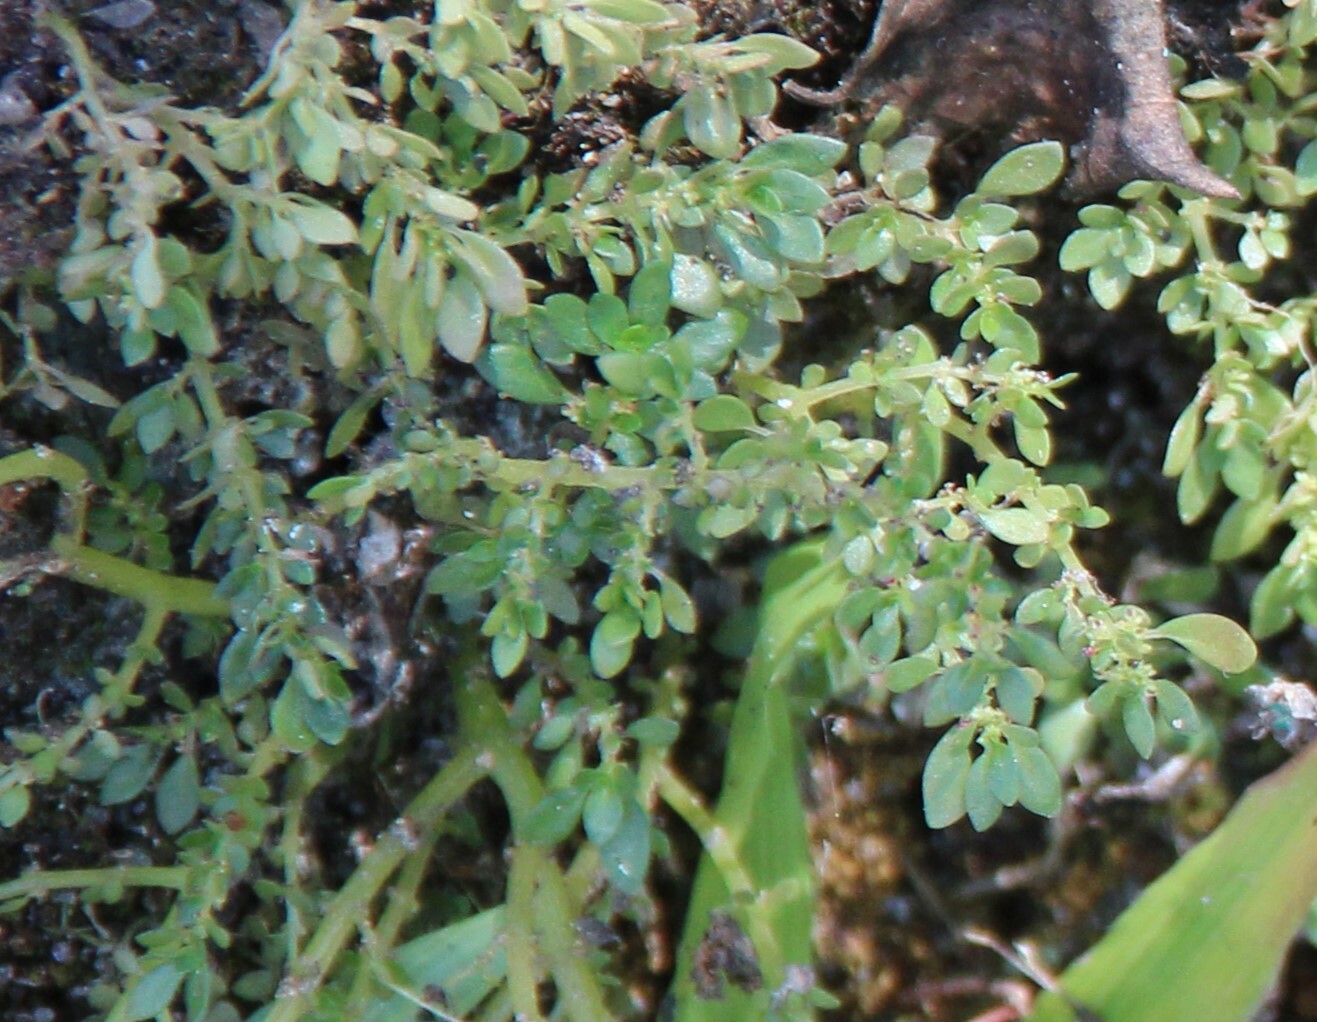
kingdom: Plantae
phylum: Tracheophyta
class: Magnoliopsida
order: Rosales
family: Urticaceae
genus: Pilea
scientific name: Pilea microphylla
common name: Artillery-plant
